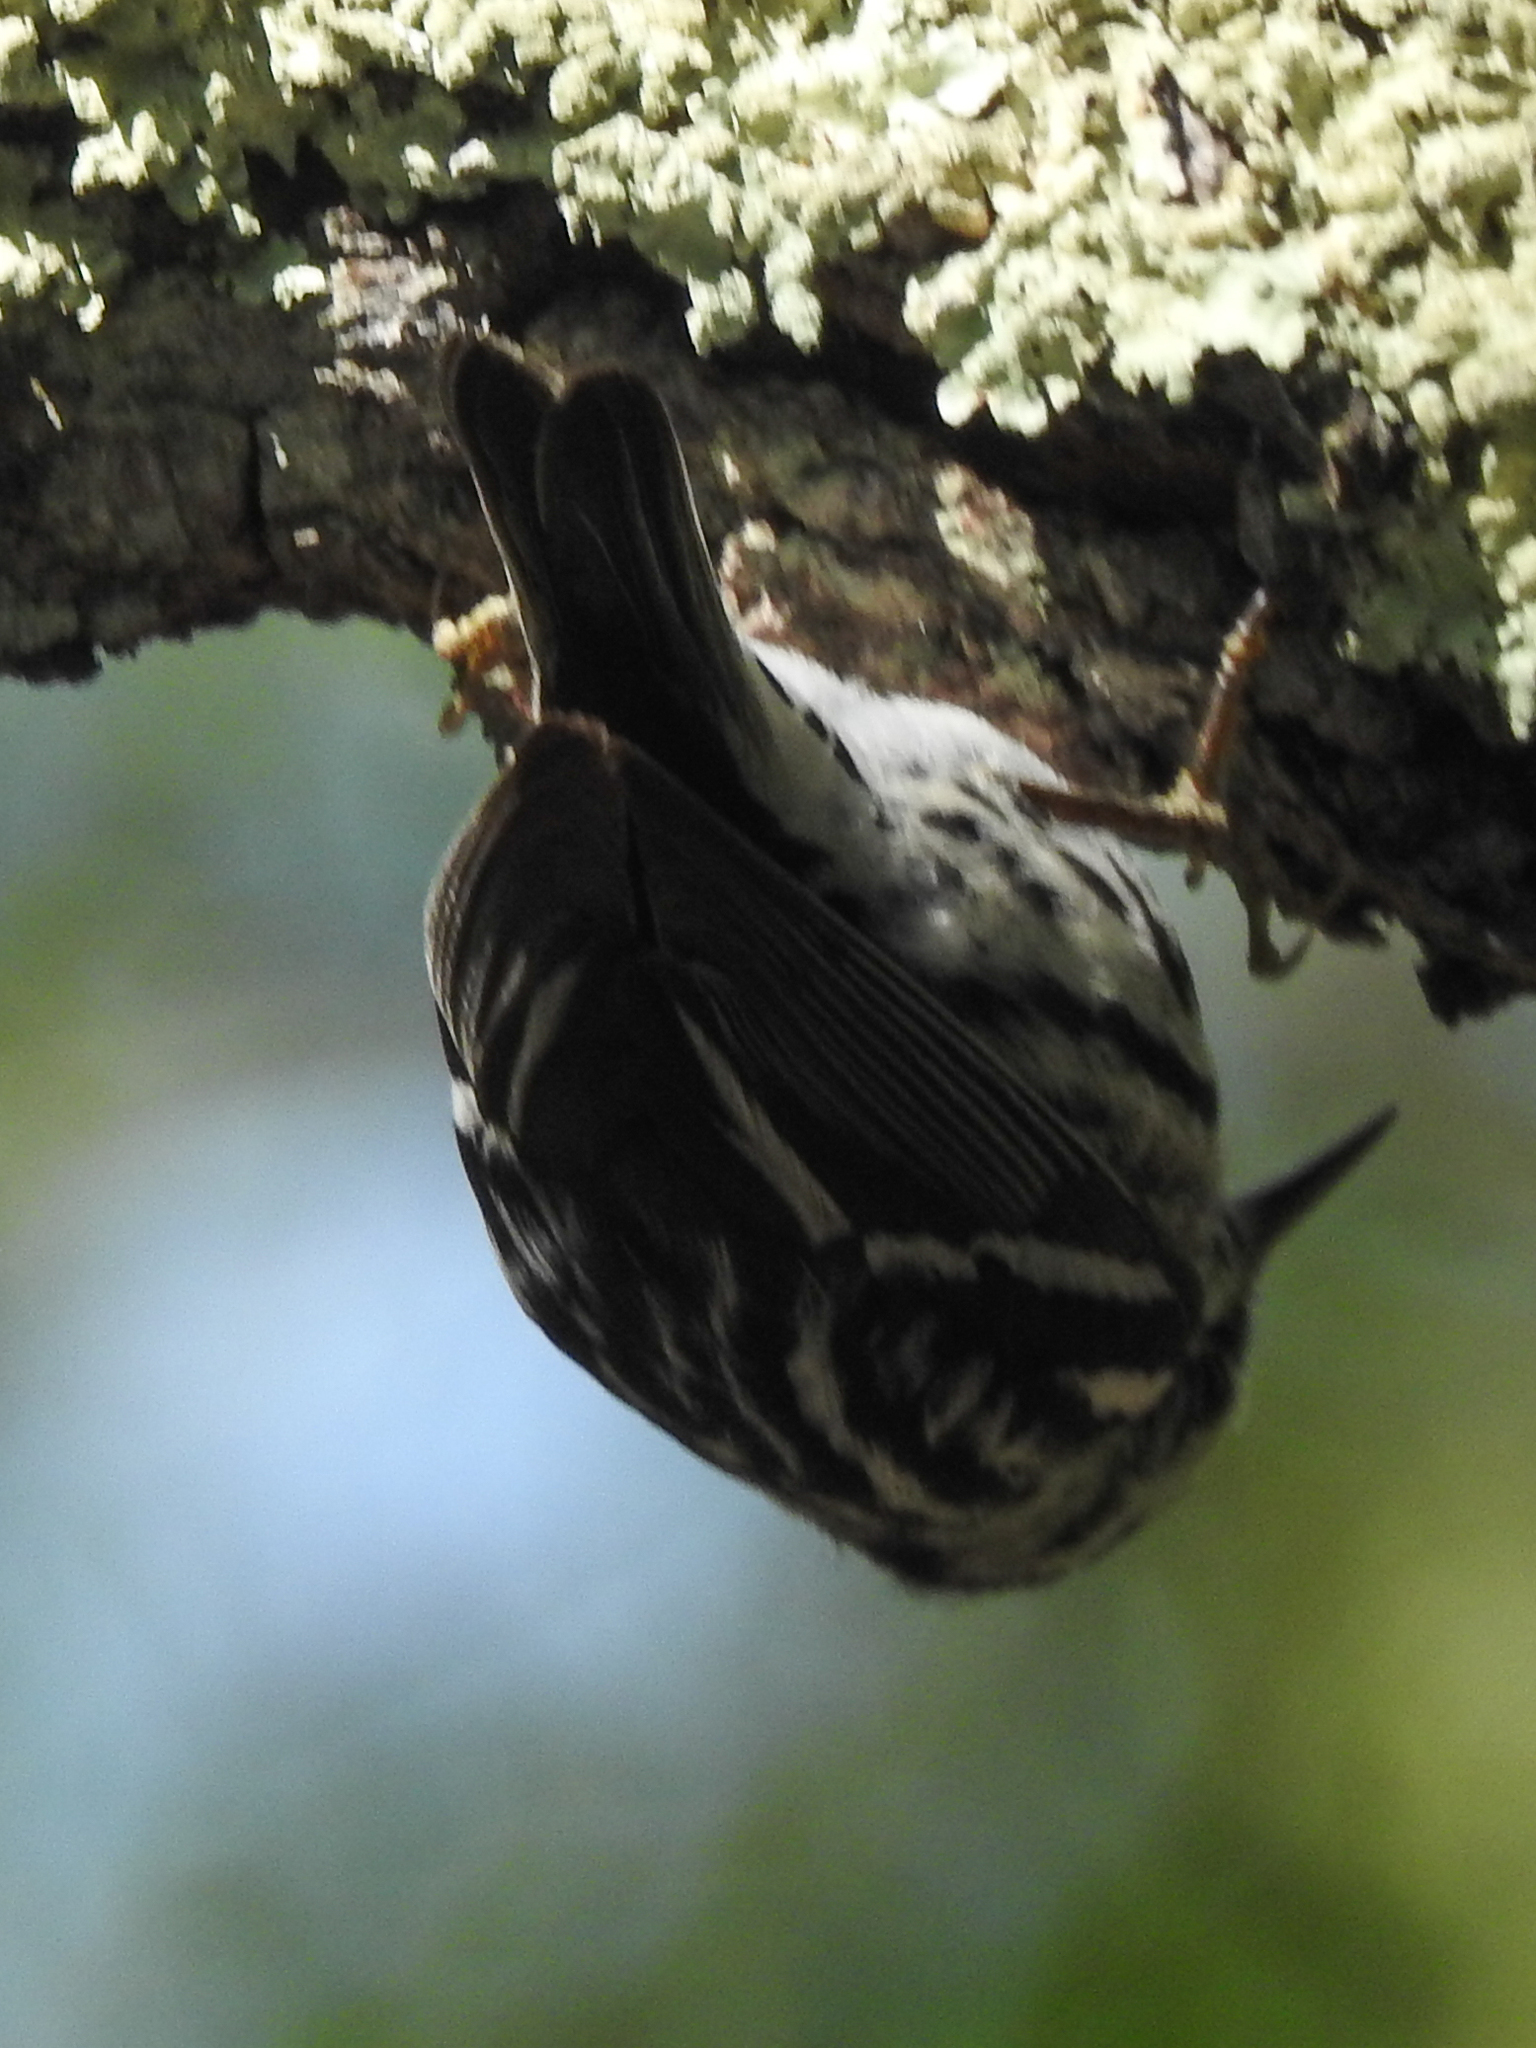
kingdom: Animalia
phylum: Chordata
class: Aves
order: Passeriformes
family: Parulidae
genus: Mniotilta
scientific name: Mniotilta varia
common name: Black-and-white warbler
